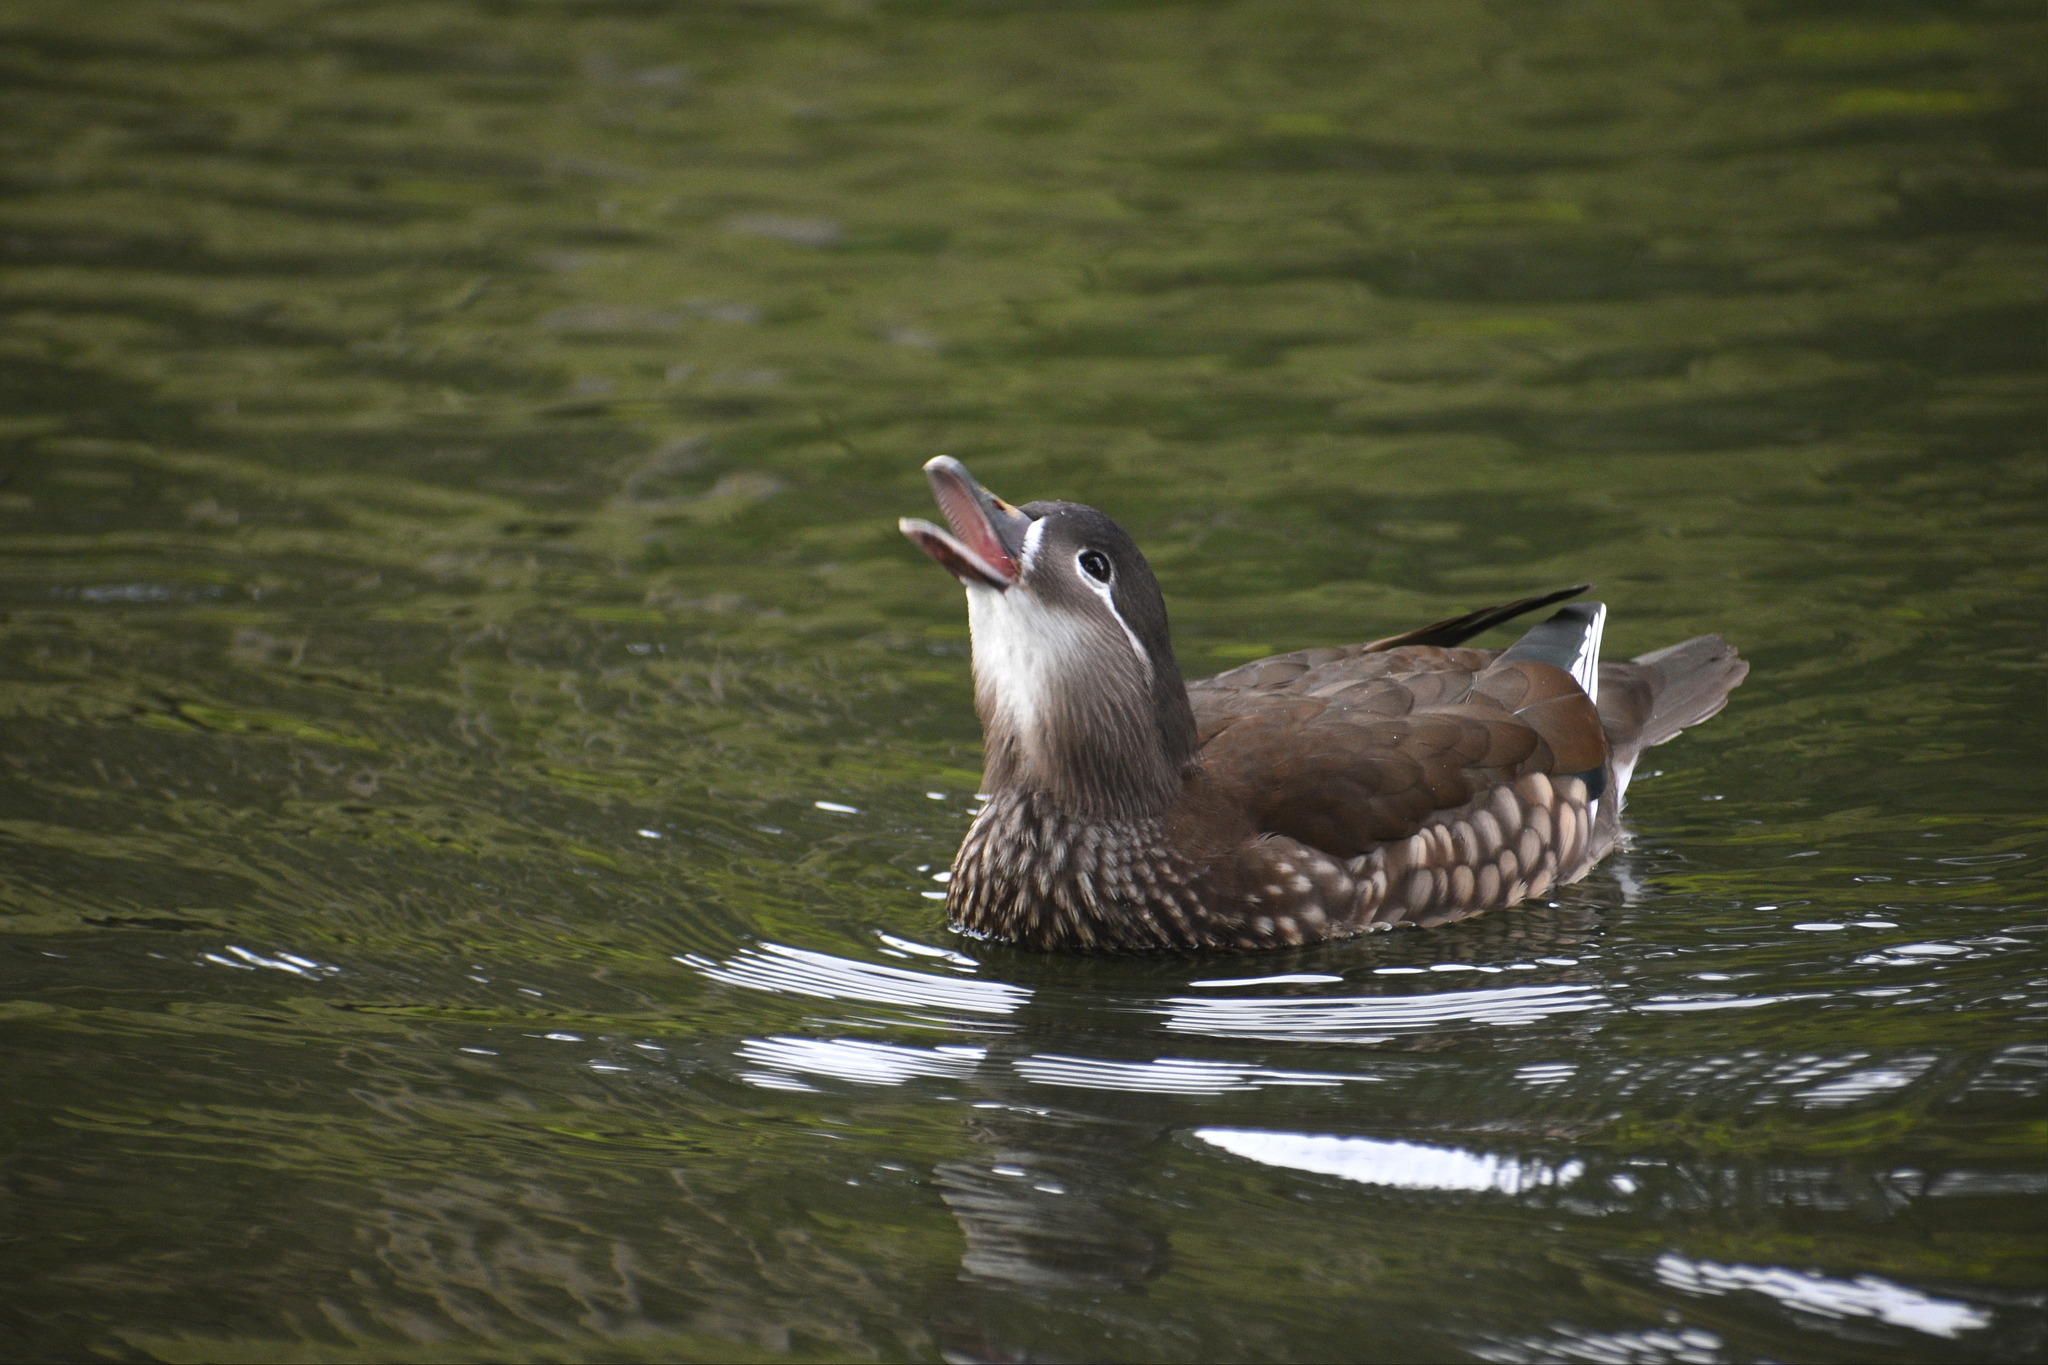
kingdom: Animalia
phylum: Chordata
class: Aves
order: Anseriformes
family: Anatidae
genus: Aix
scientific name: Aix galericulata
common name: Mandarin duck
